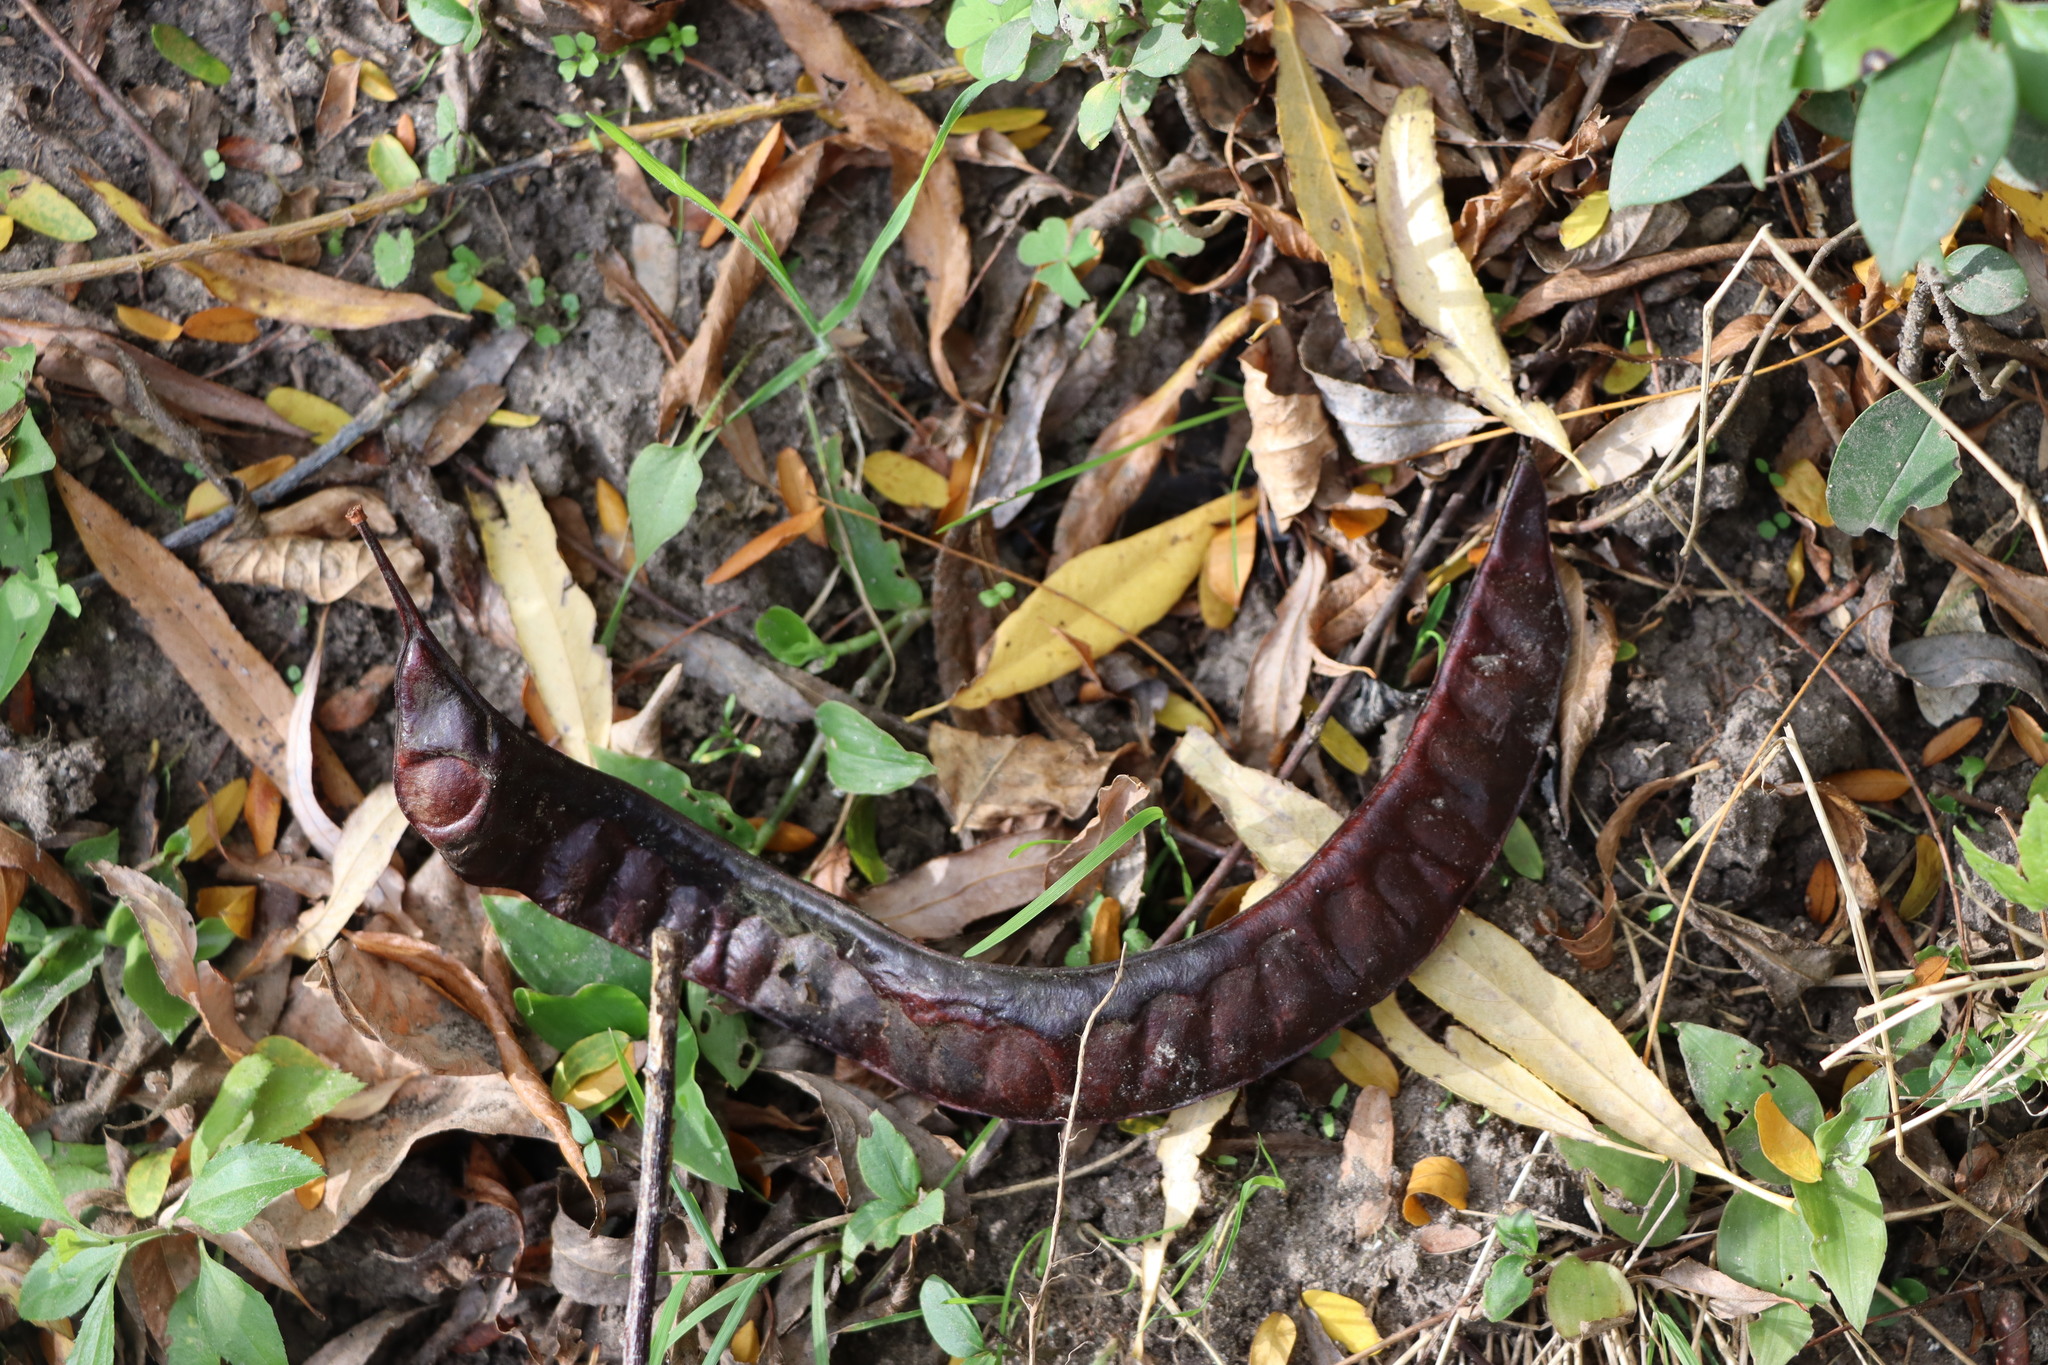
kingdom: Plantae
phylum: Tracheophyta
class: Magnoliopsida
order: Fabales
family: Fabaceae
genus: Gleditsia
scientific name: Gleditsia triacanthos
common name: Common honeylocust
